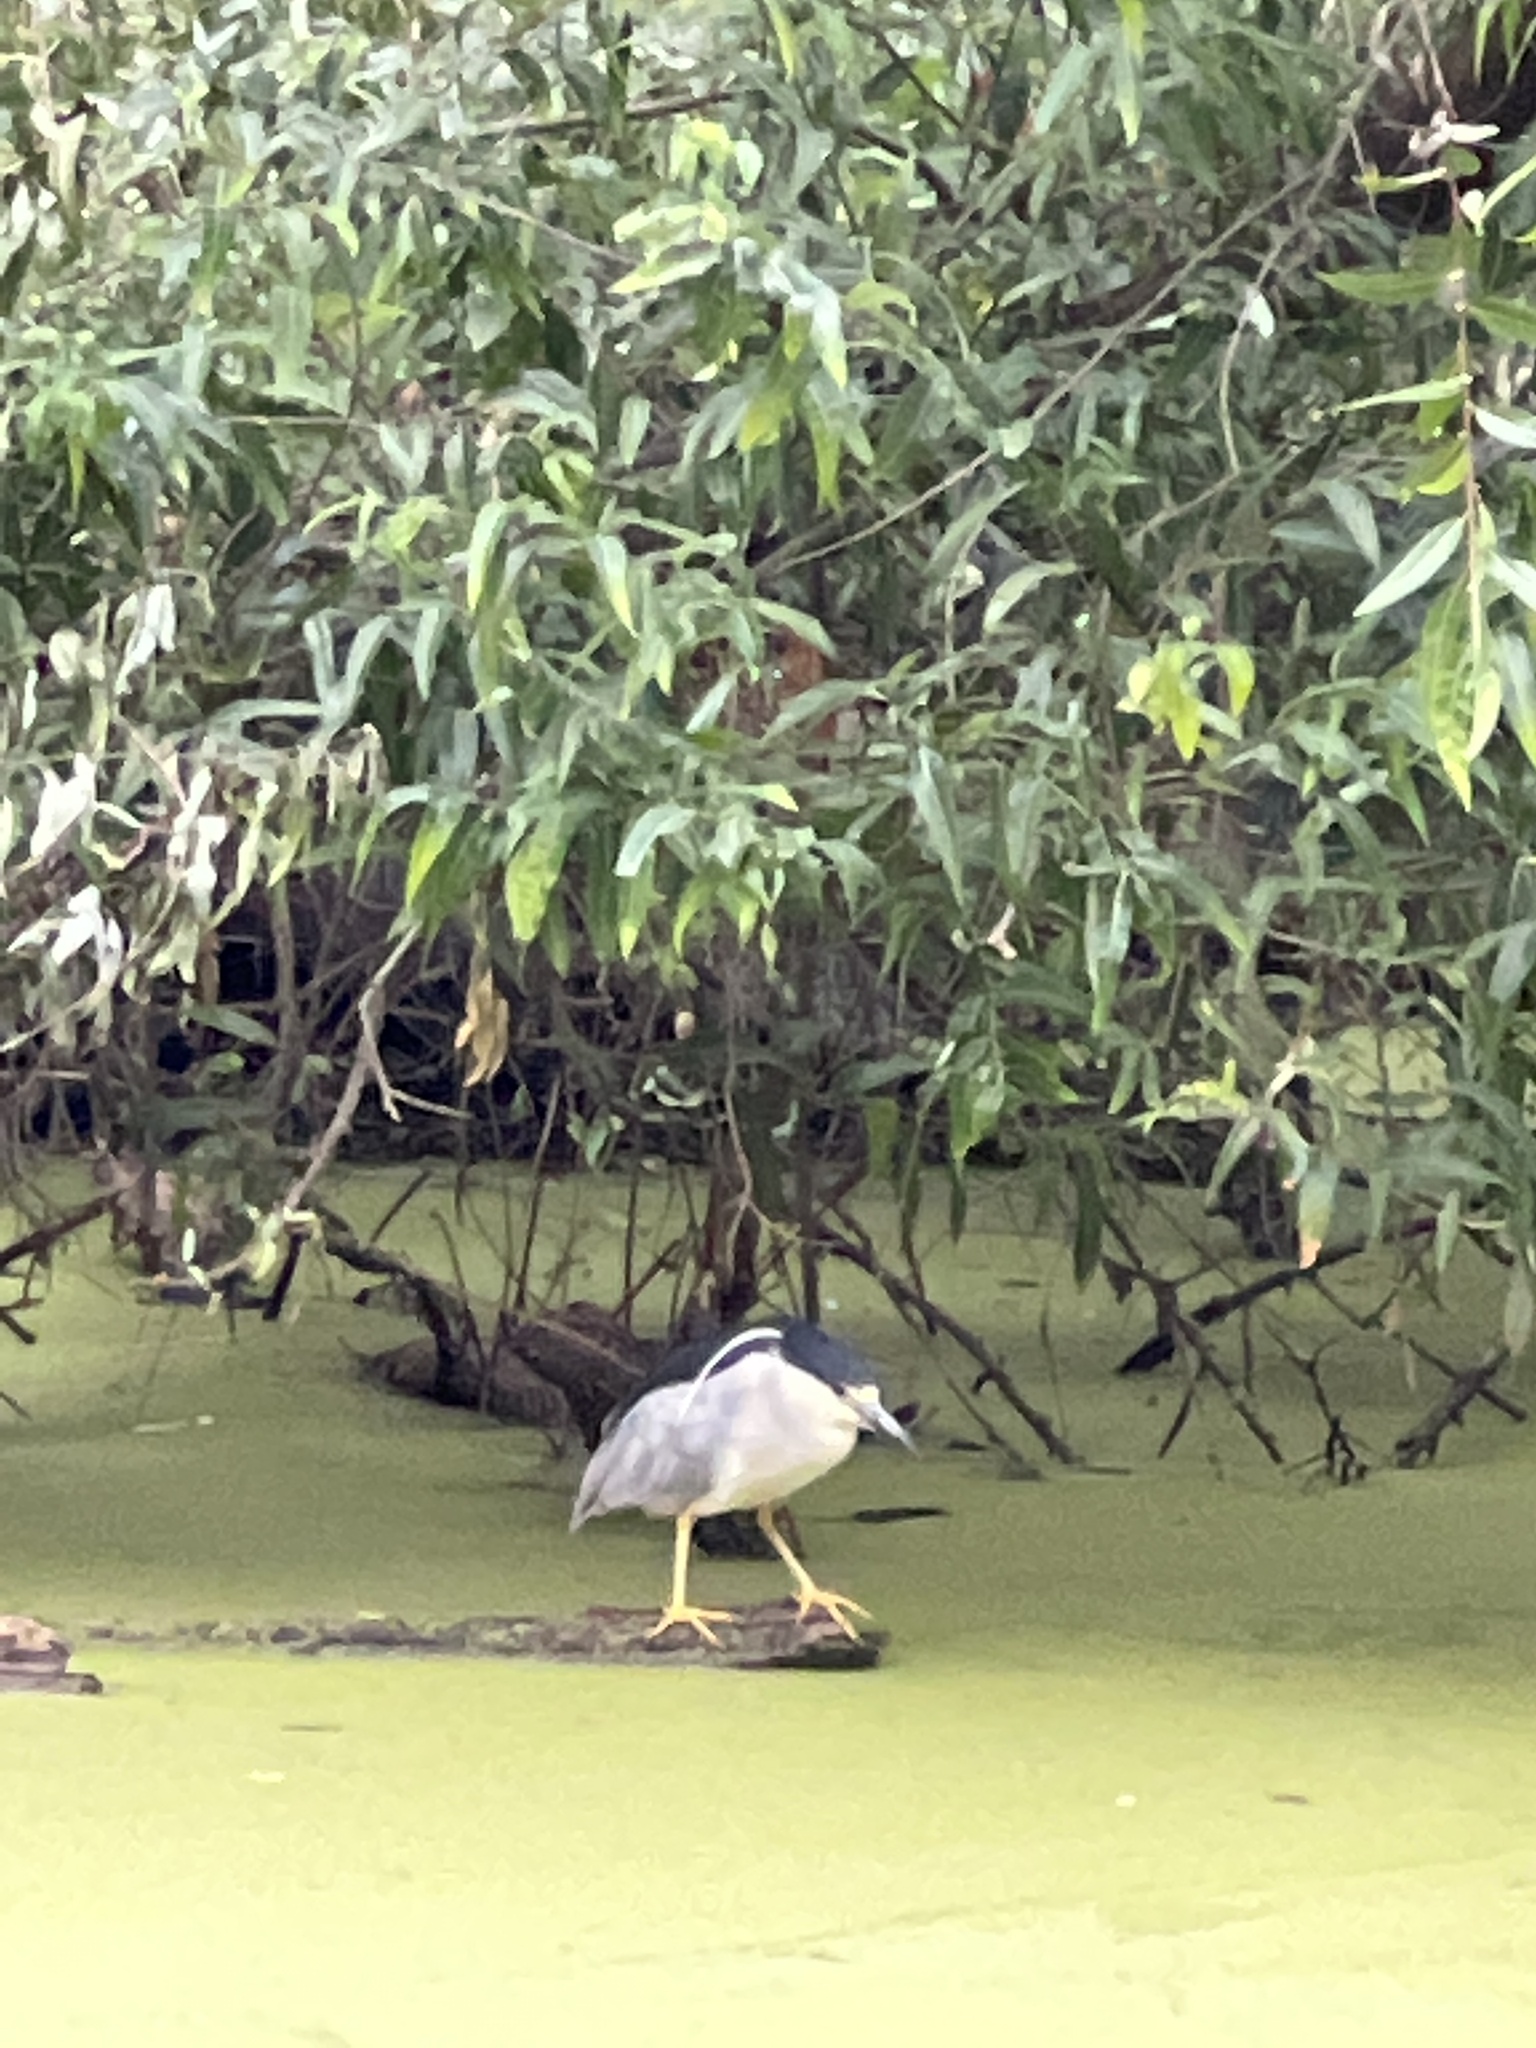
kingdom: Animalia
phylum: Chordata
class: Aves
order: Pelecaniformes
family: Ardeidae
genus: Nycticorax
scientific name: Nycticorax nycticorax
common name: Black-crowned night heron
